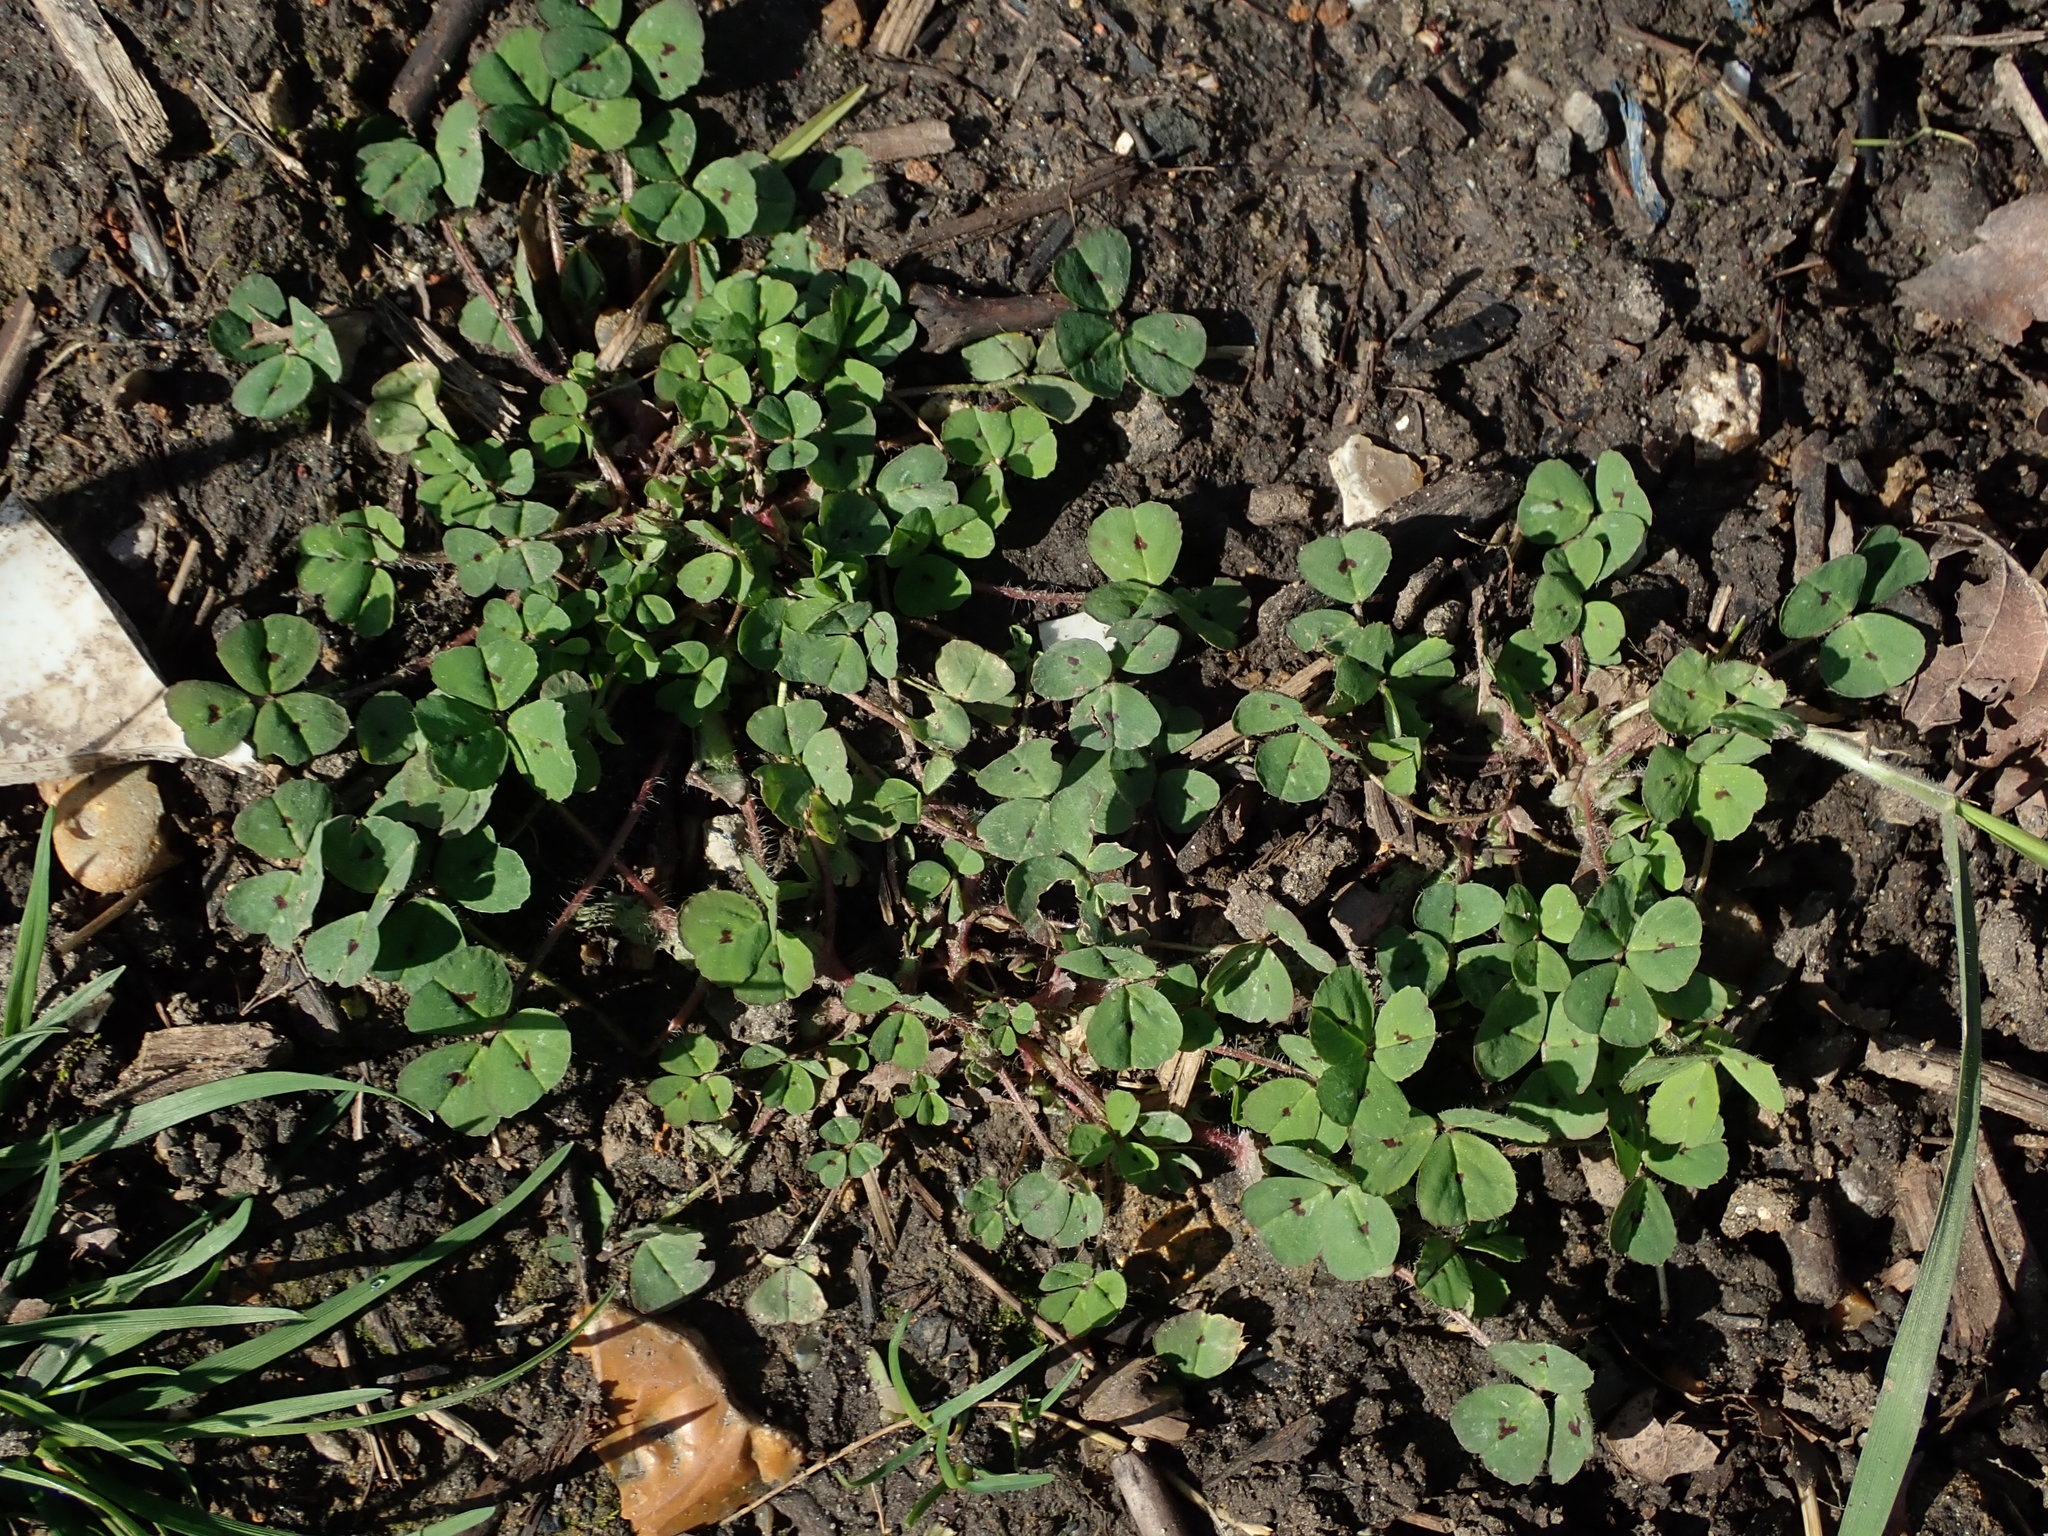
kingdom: Plantae
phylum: Tracheophyta
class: Magnoliopsida
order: Fabales
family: Fabaceae
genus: Medicago
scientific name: Medicago arabica
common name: Spotted medick
